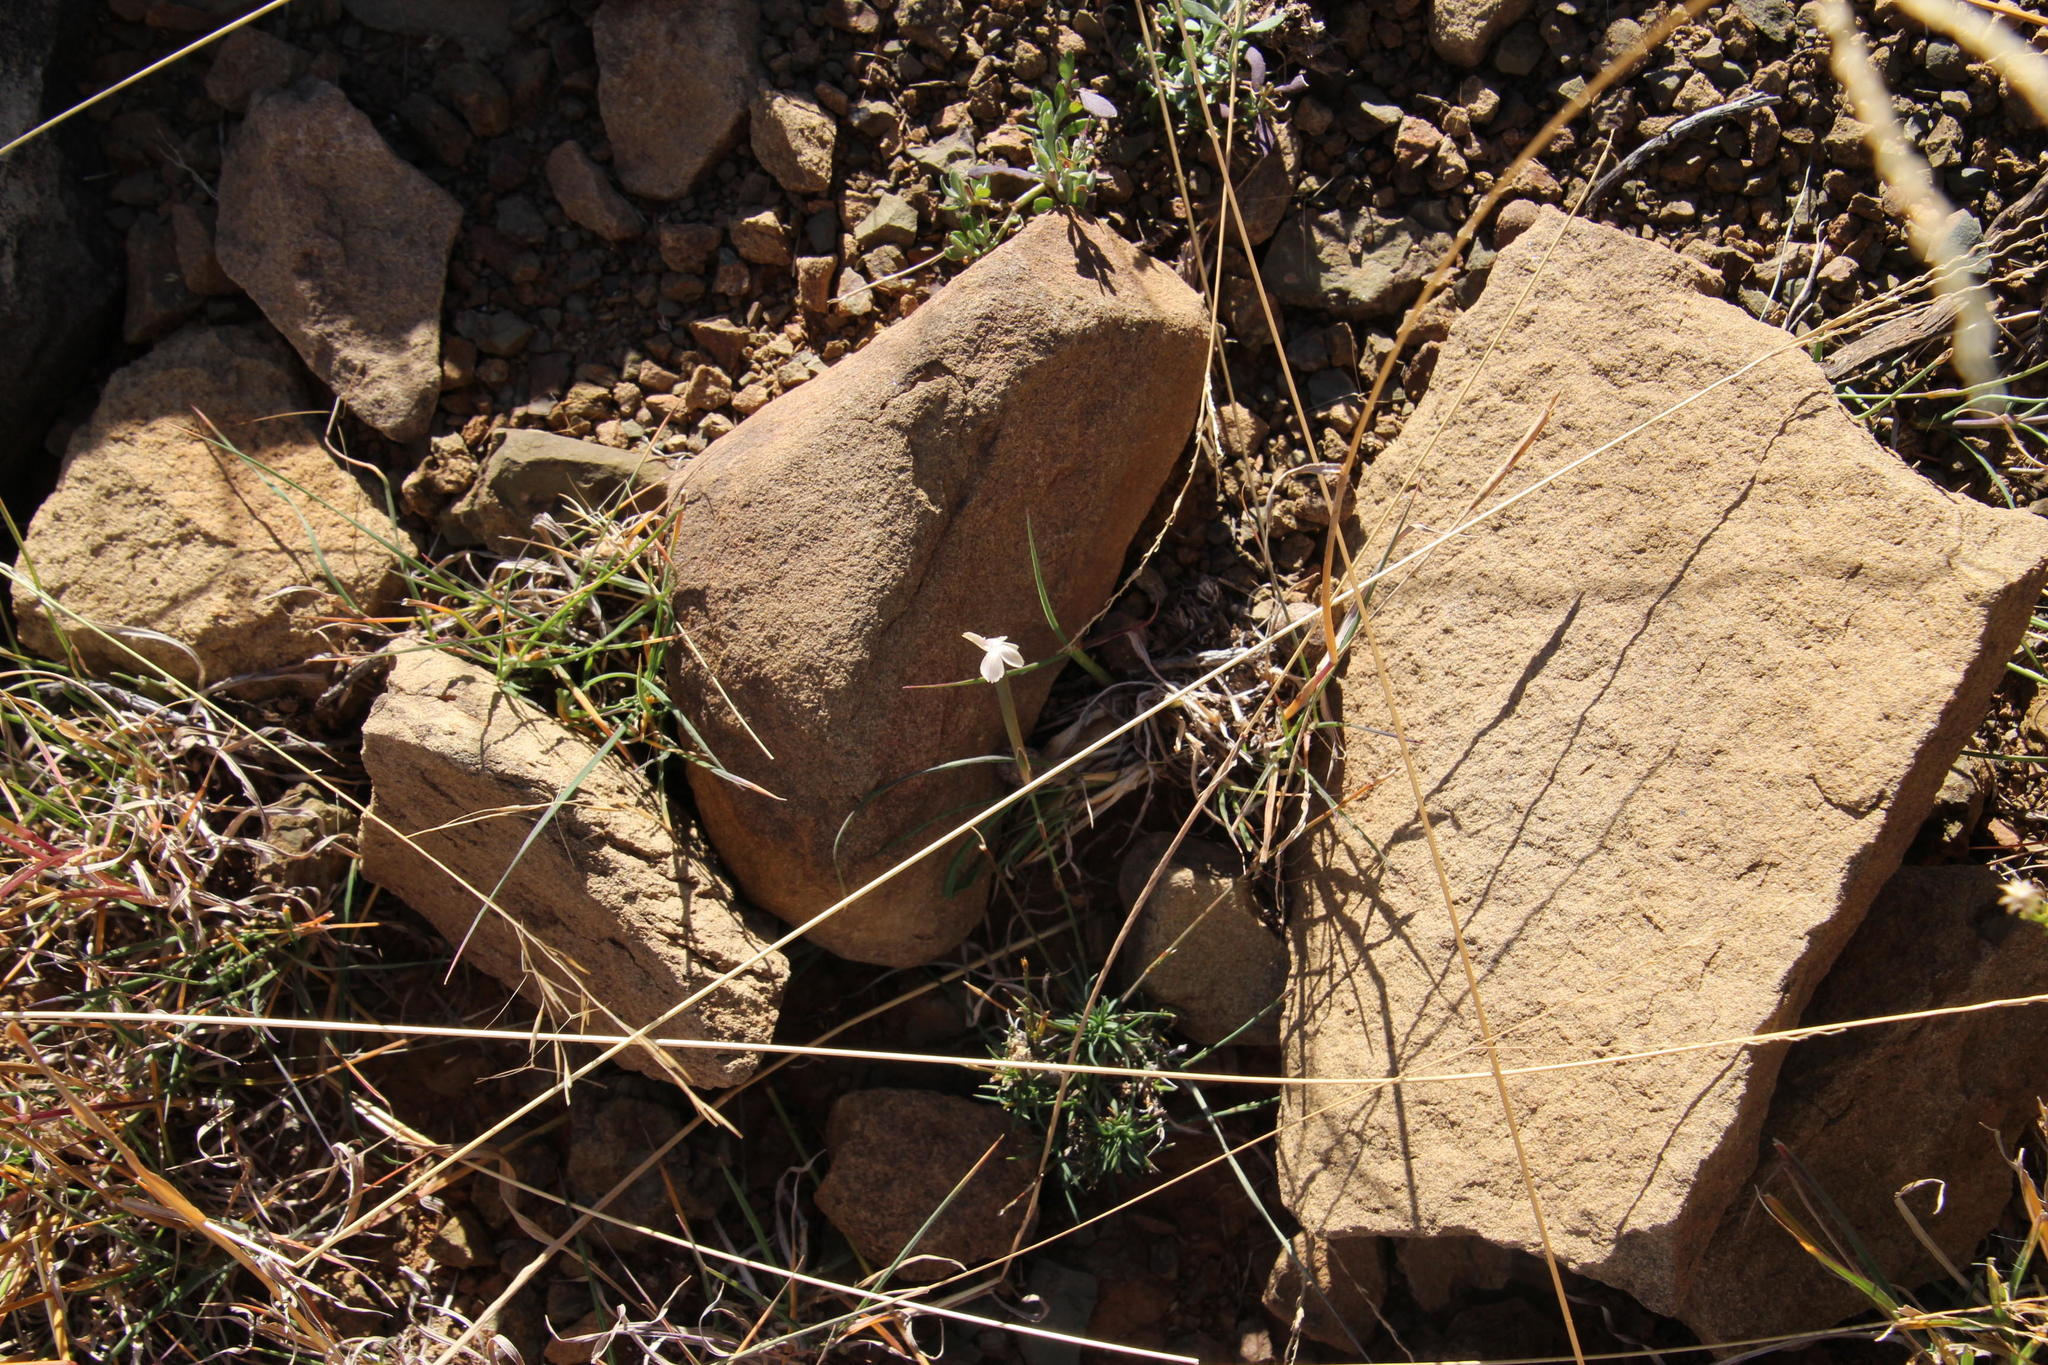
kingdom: Plantae
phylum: Tracheophyta
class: Magnoliopsida
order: Caryophyllales
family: Caryophyllaceae
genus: Dianthus
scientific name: Dianthus micropetalus
